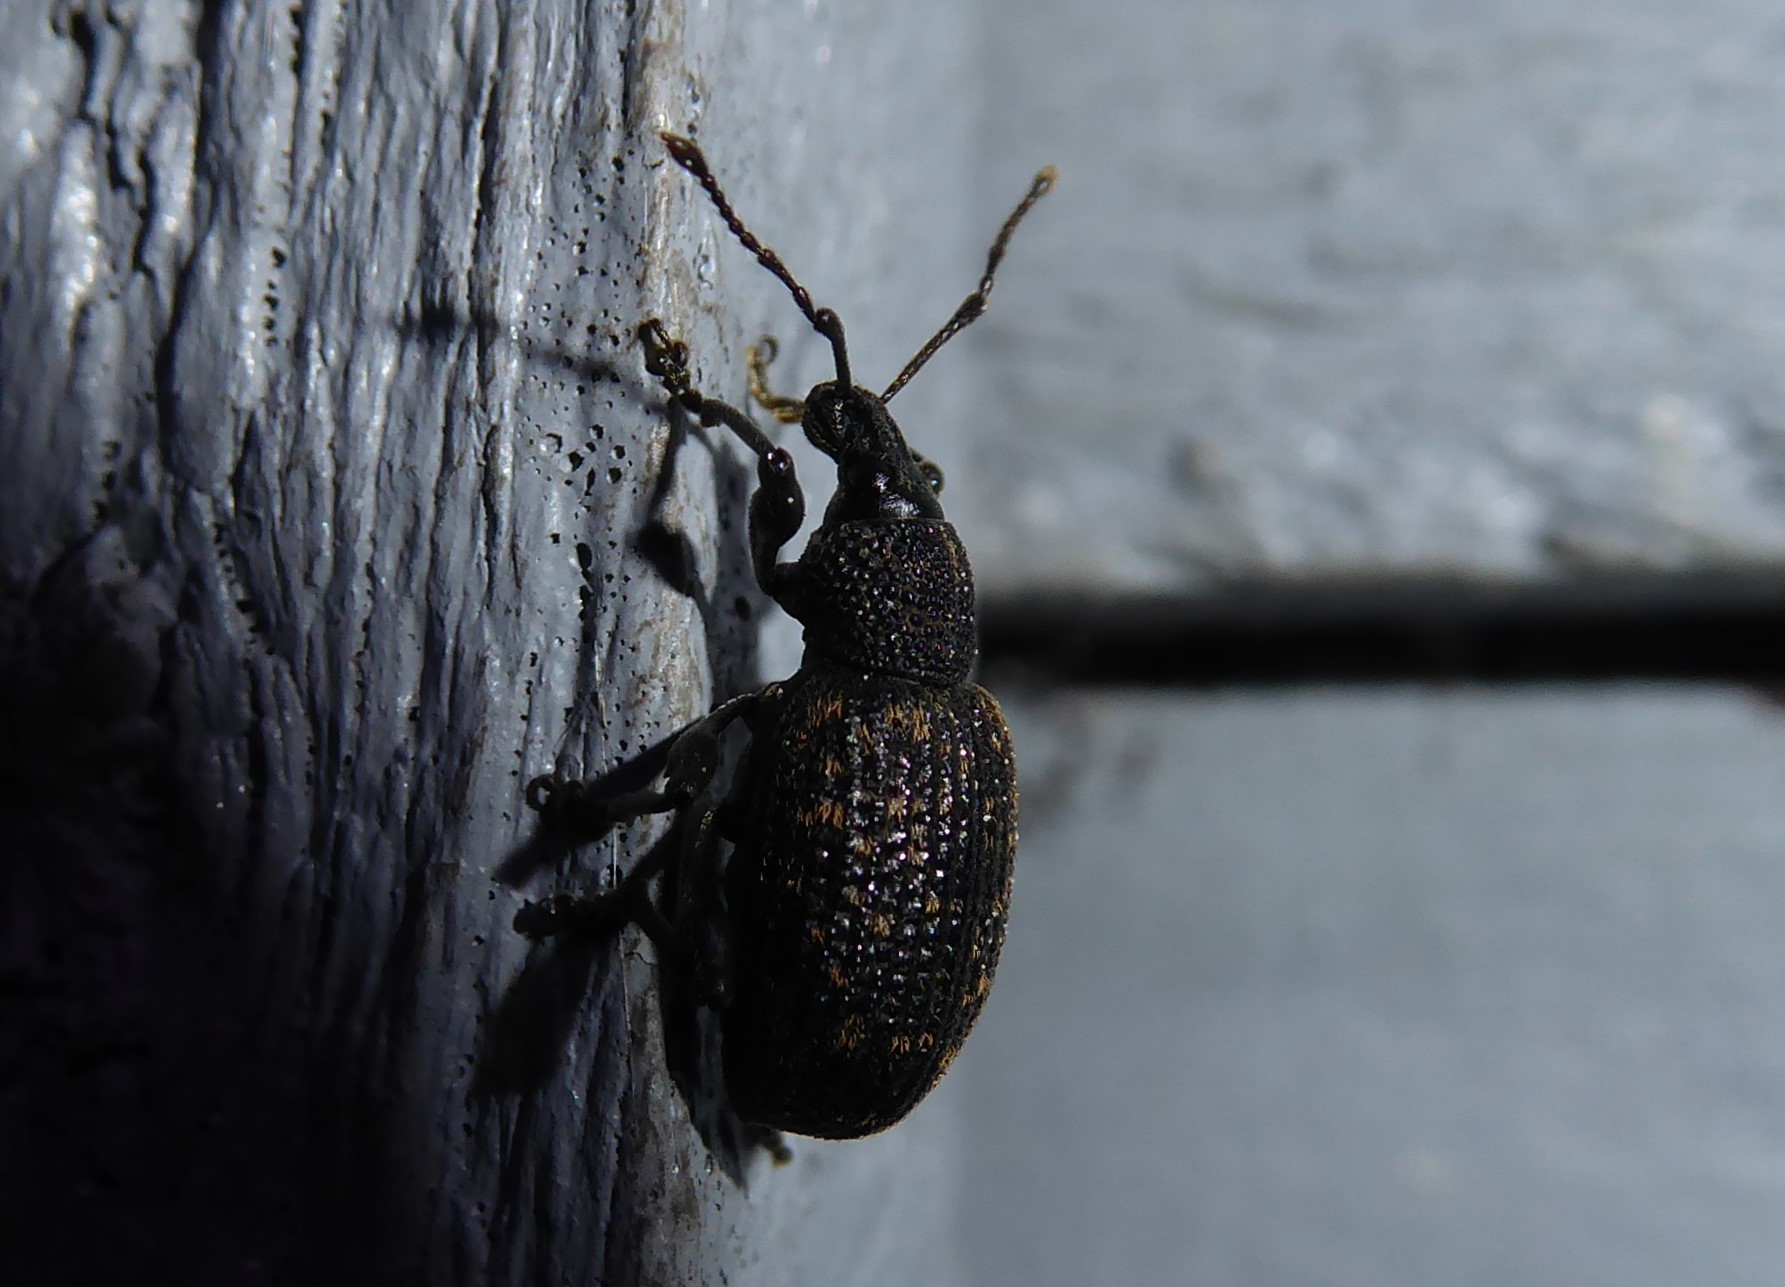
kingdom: Animalia
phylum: Arthropoda
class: Insecta
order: Coleoptera
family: Curculionidae
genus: Otiorhynchus
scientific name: Otiorhynchus sulcatus
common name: Black vine weevil
